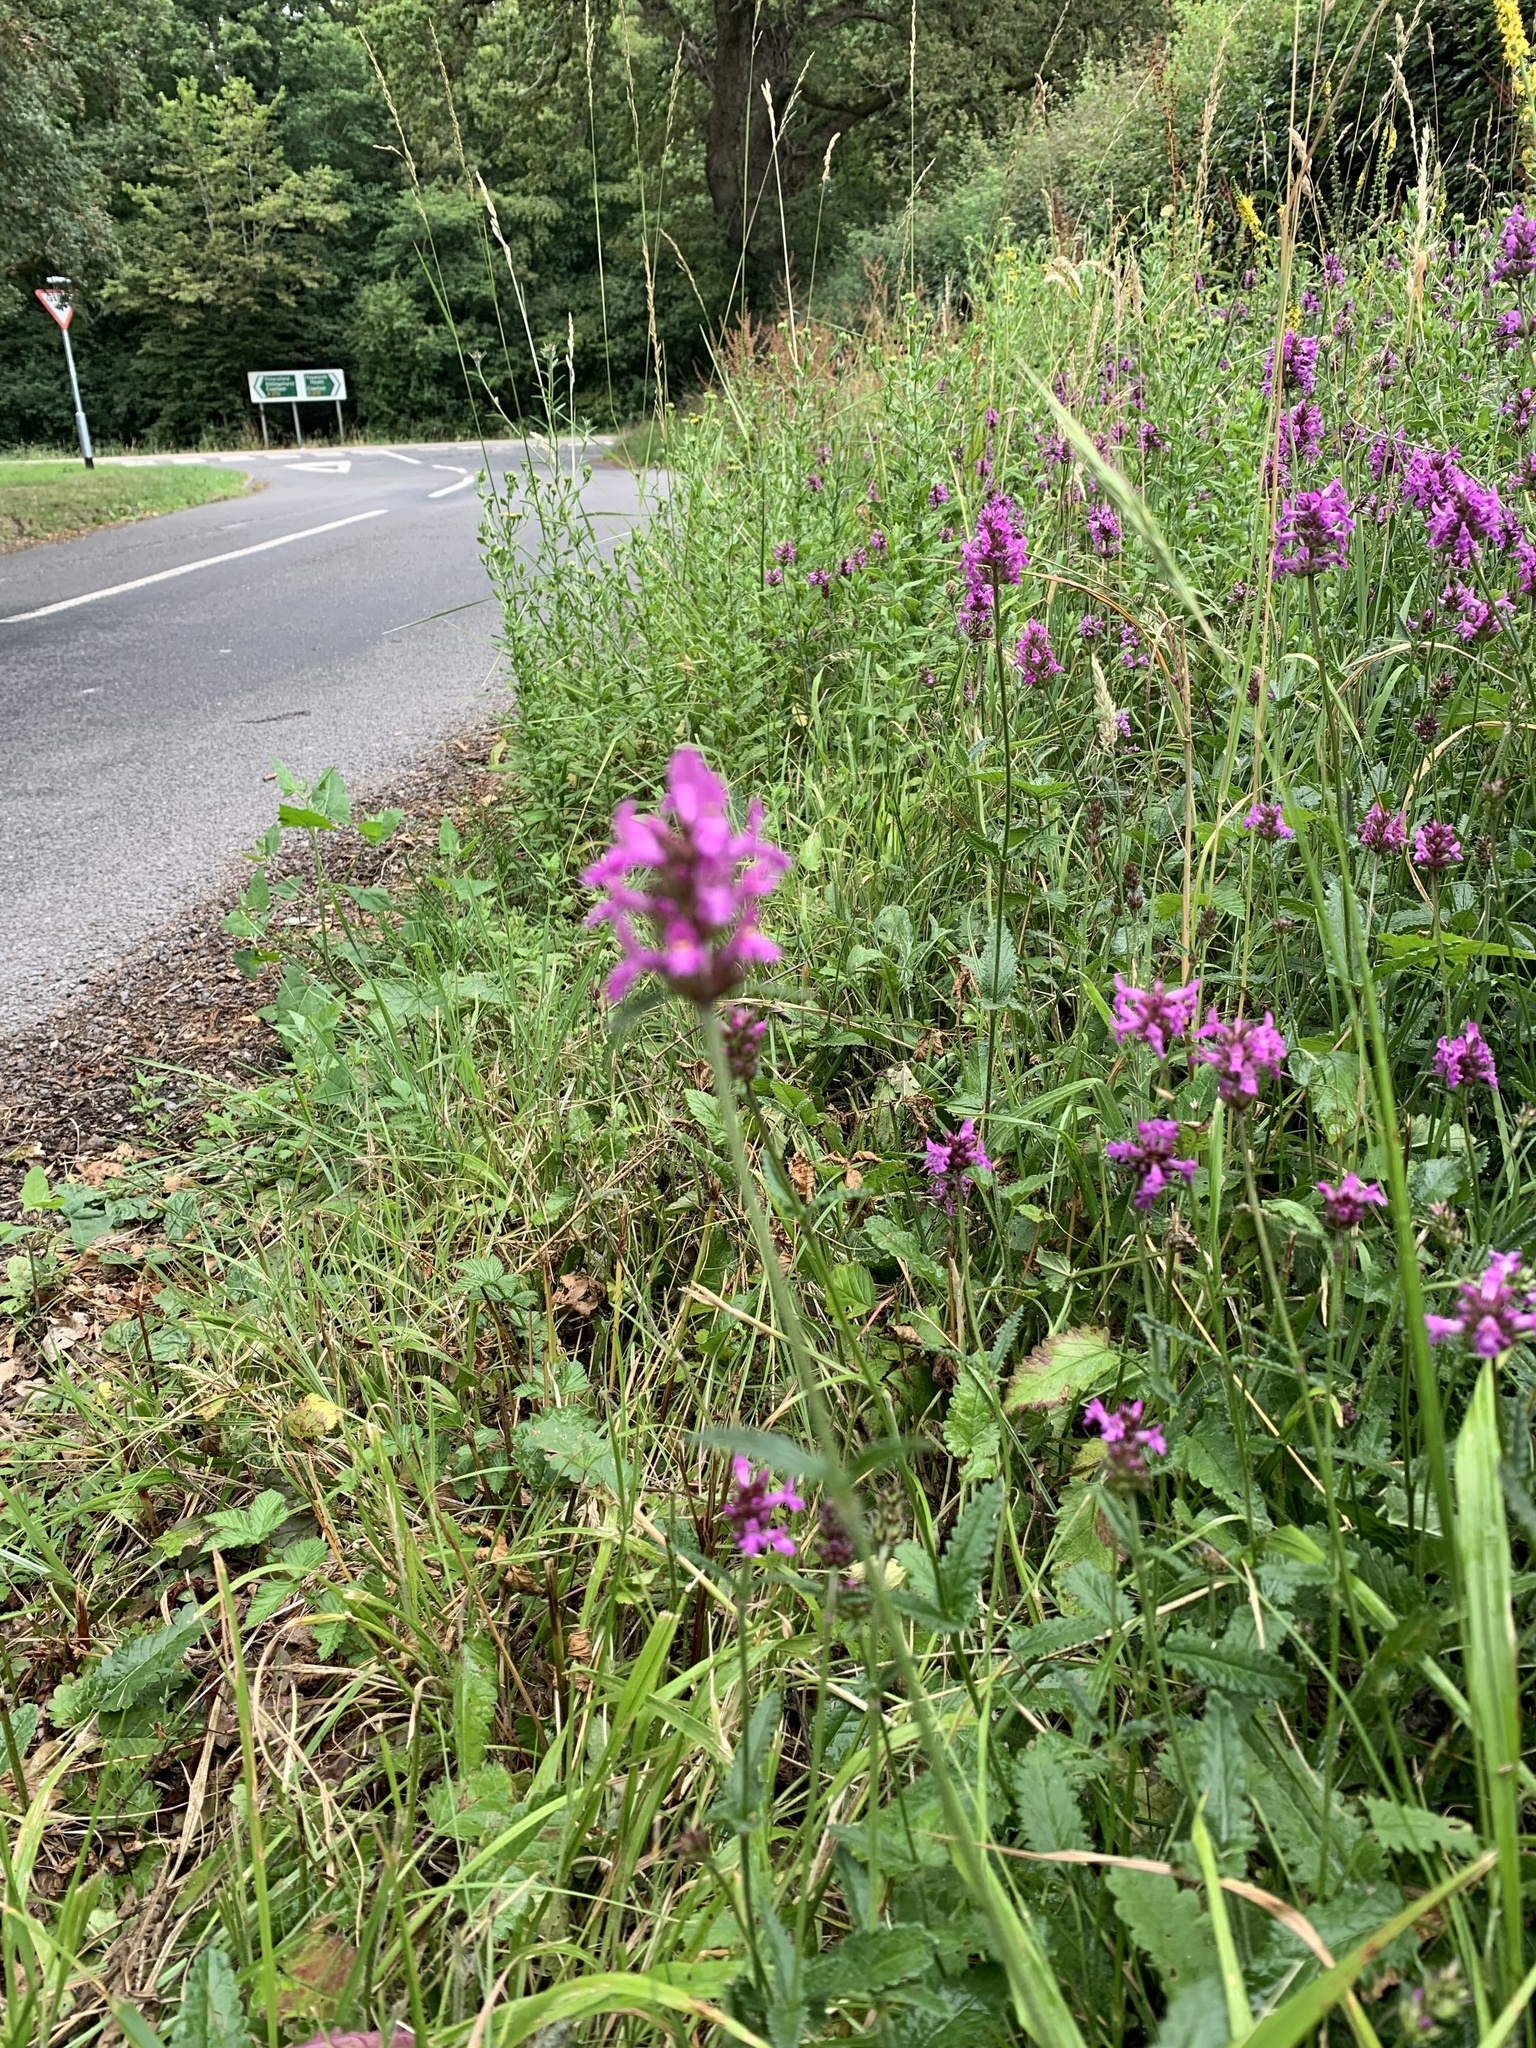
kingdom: Plantae
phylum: Tracheophyta
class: Magnoliopsida
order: Lamiales
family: Lamiaceae
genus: Betonica
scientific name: Betonica officinalis
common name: Bishop's-wort
